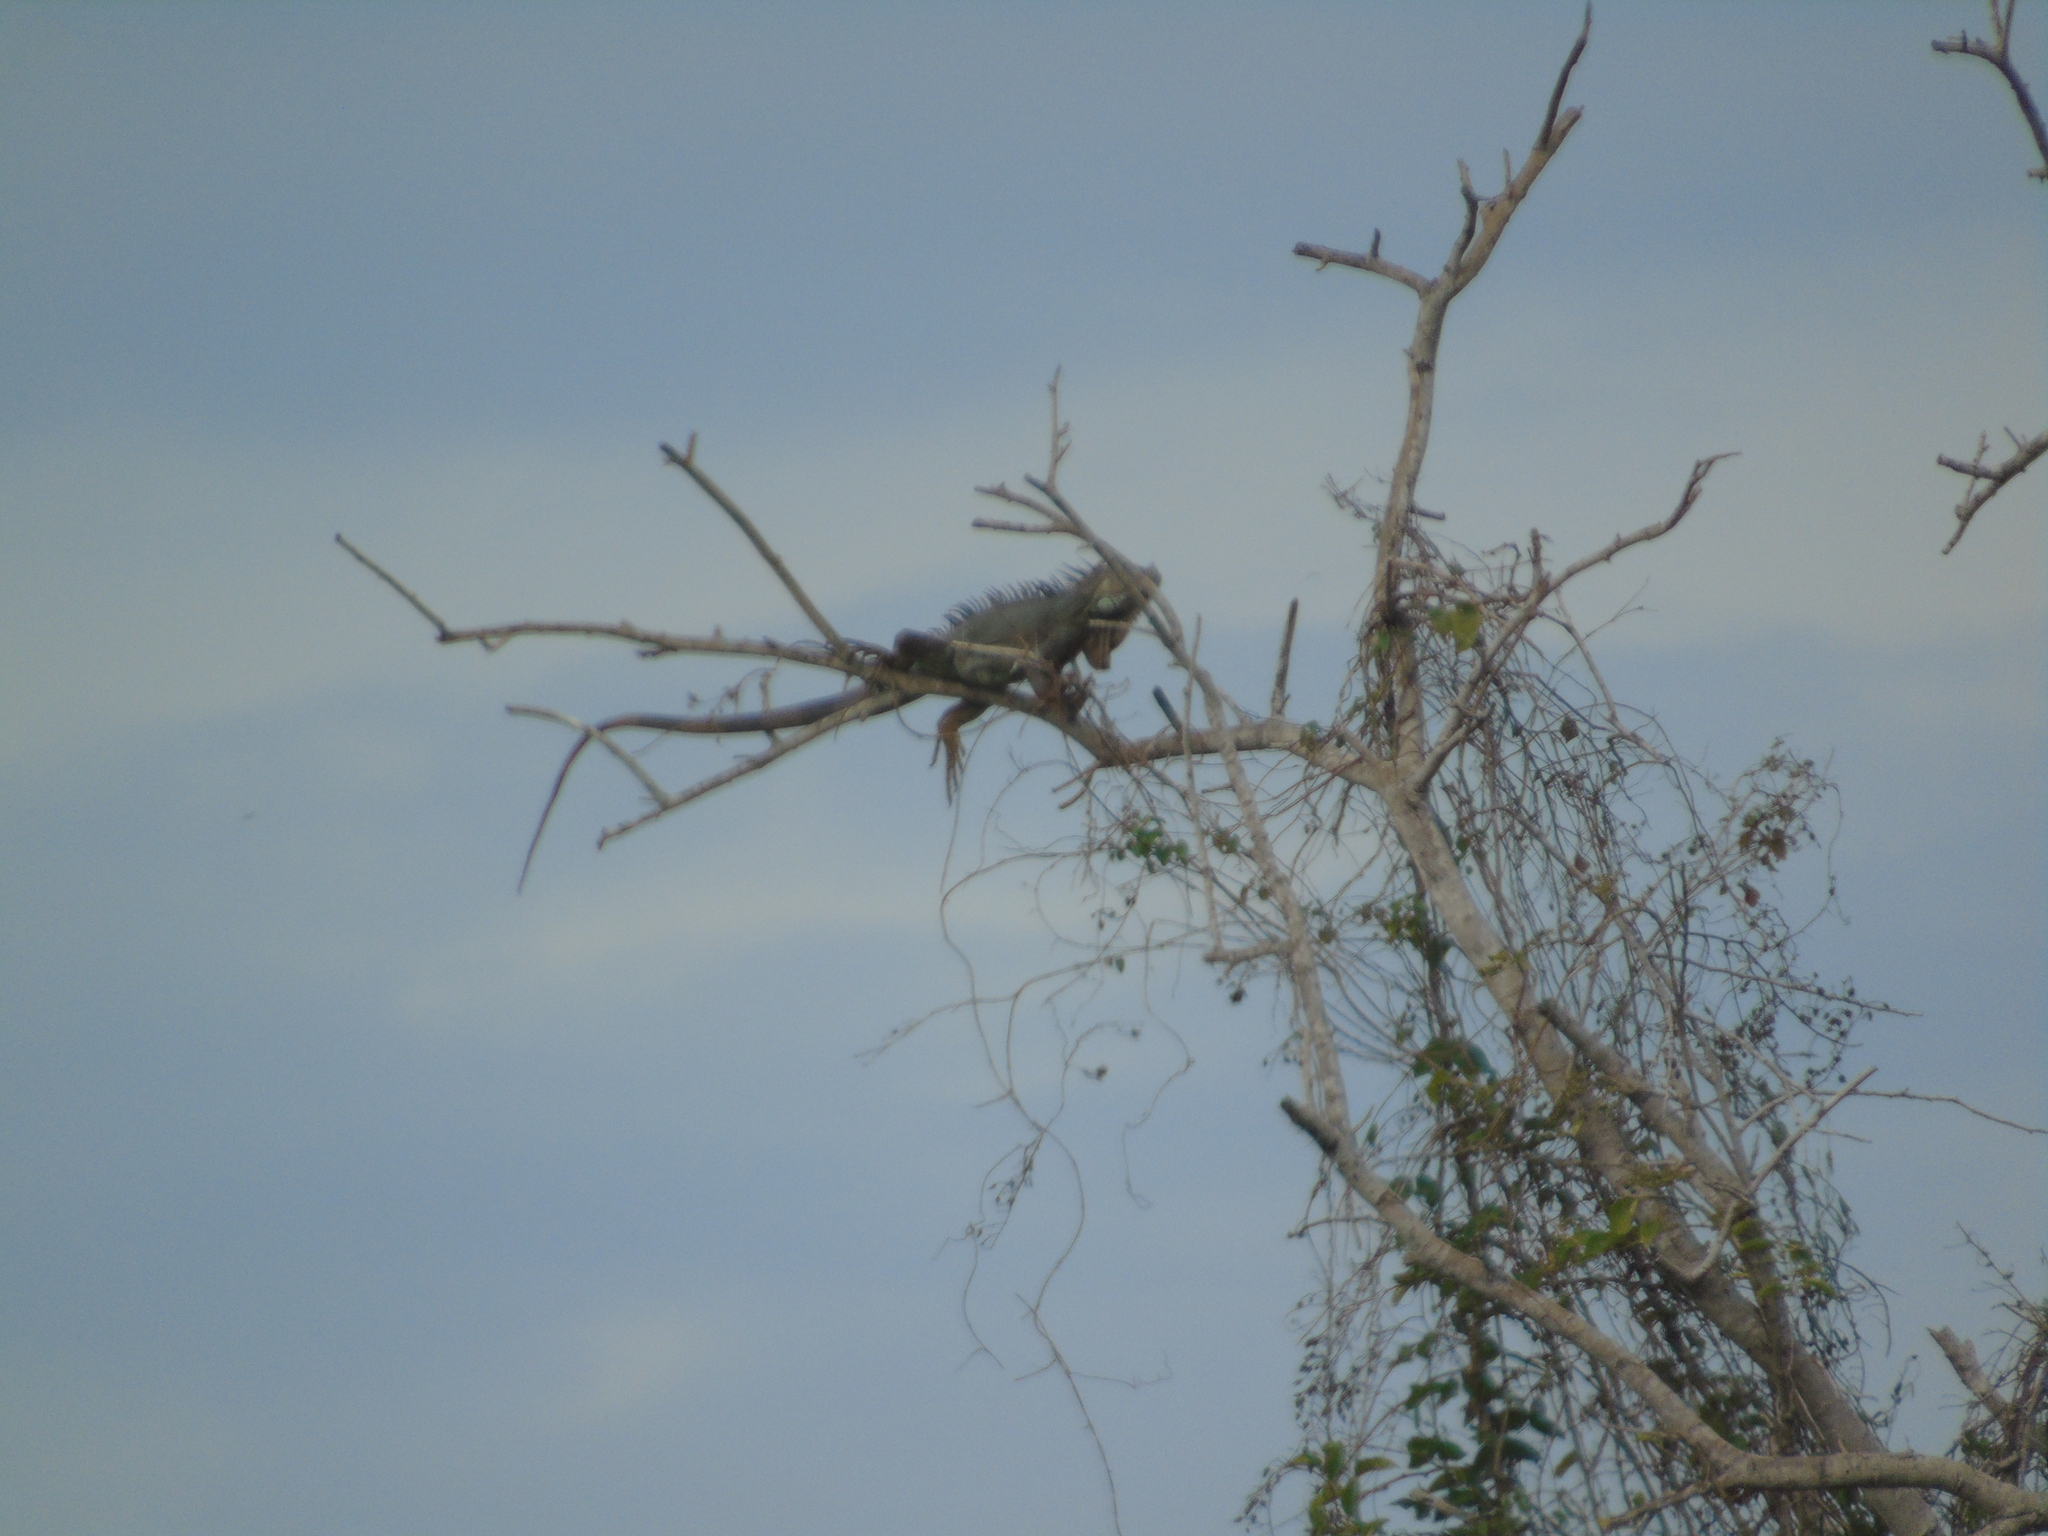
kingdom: Animalia
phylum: Chordata
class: Squamata
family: Iguanidae
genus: Iguana
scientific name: Iguana iguana
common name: Green iguana
